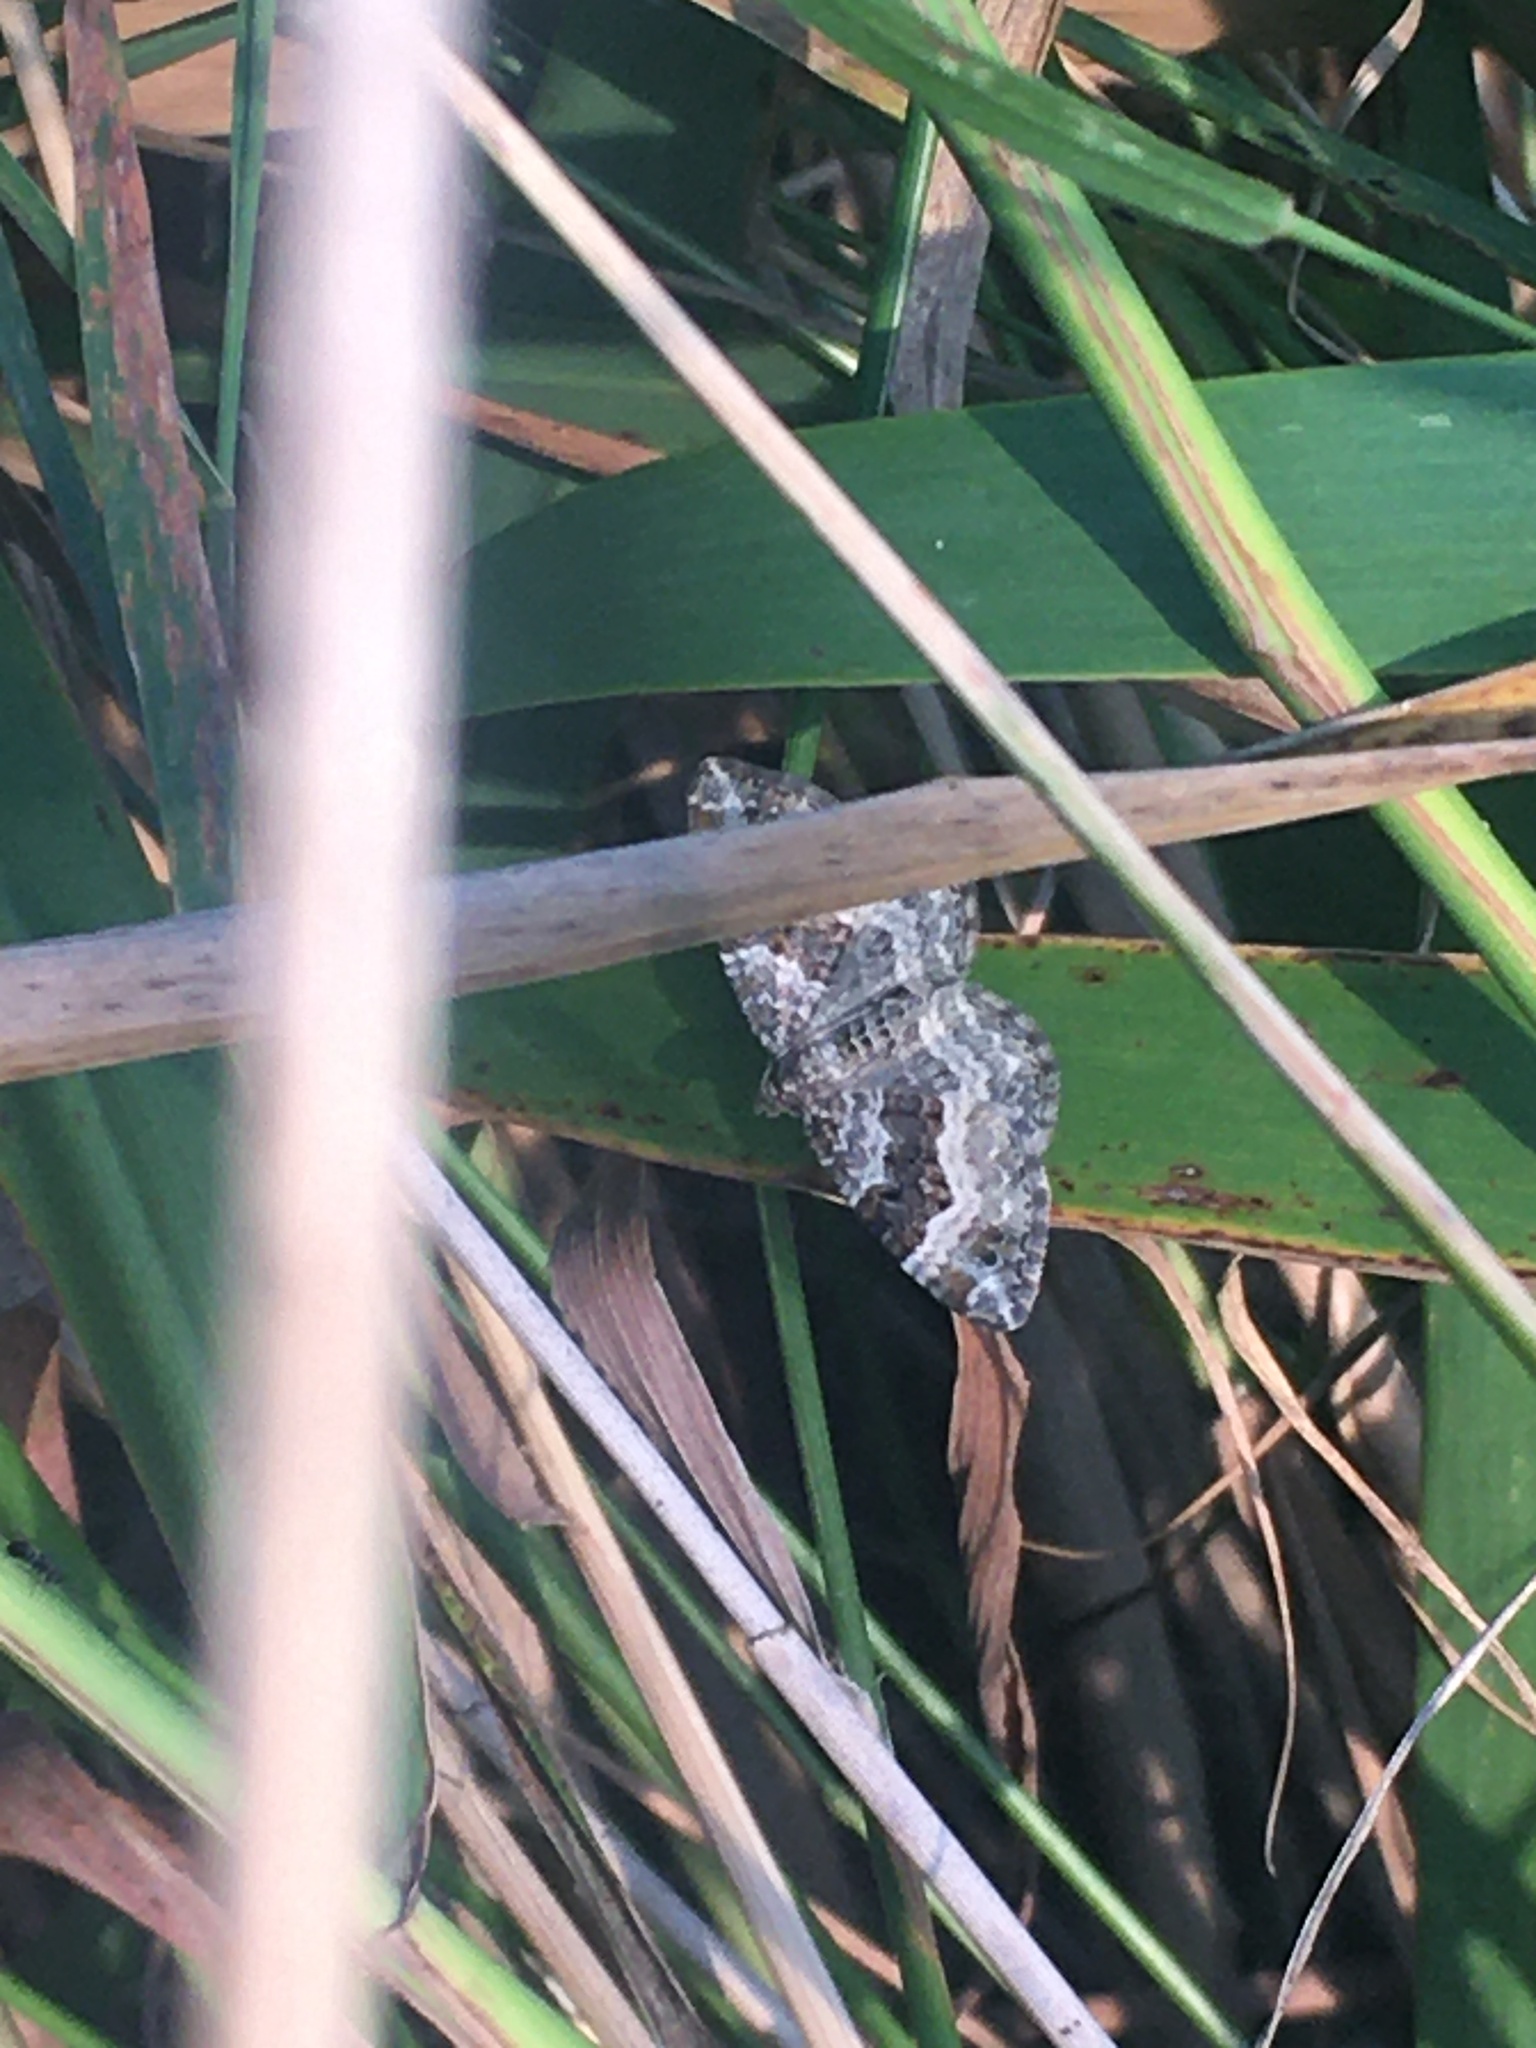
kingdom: Animalia
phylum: Arthropoda
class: Insecta
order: Lepidoptera
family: Geometridae
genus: Epirrhoe
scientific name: Epirrhoe alternata
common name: Common carpet
